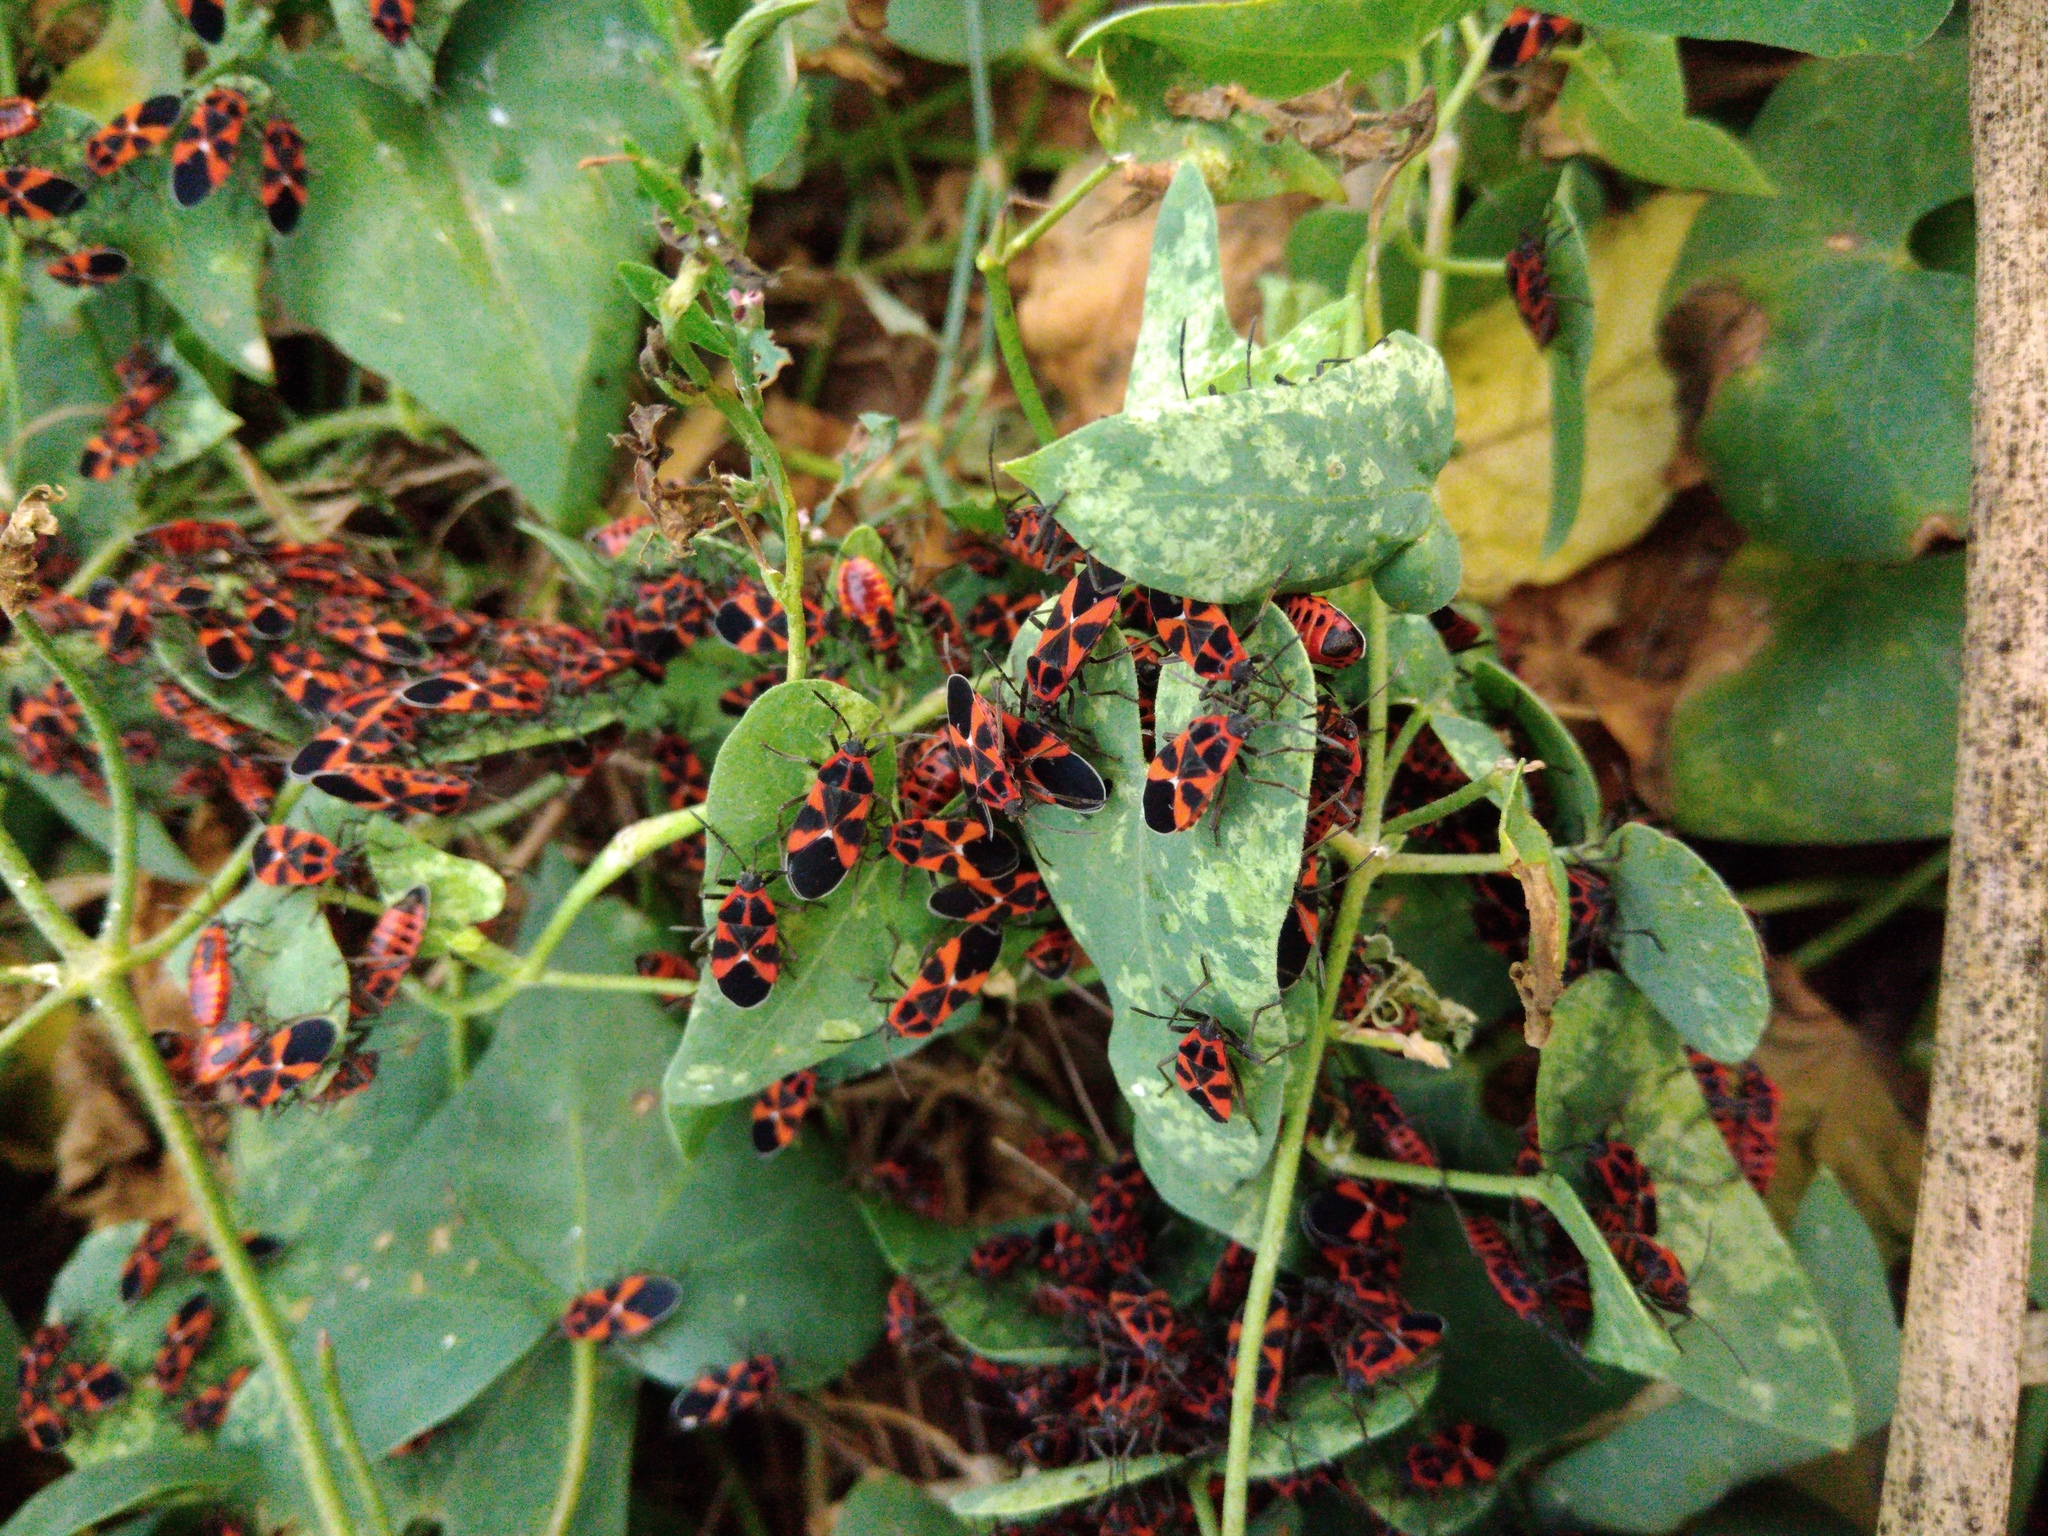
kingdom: Animalia
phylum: Arthropoda
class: Insecta
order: Hemiptera
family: Lygaeidae
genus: Tropidothorax
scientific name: Tropidothorax leucopterus
